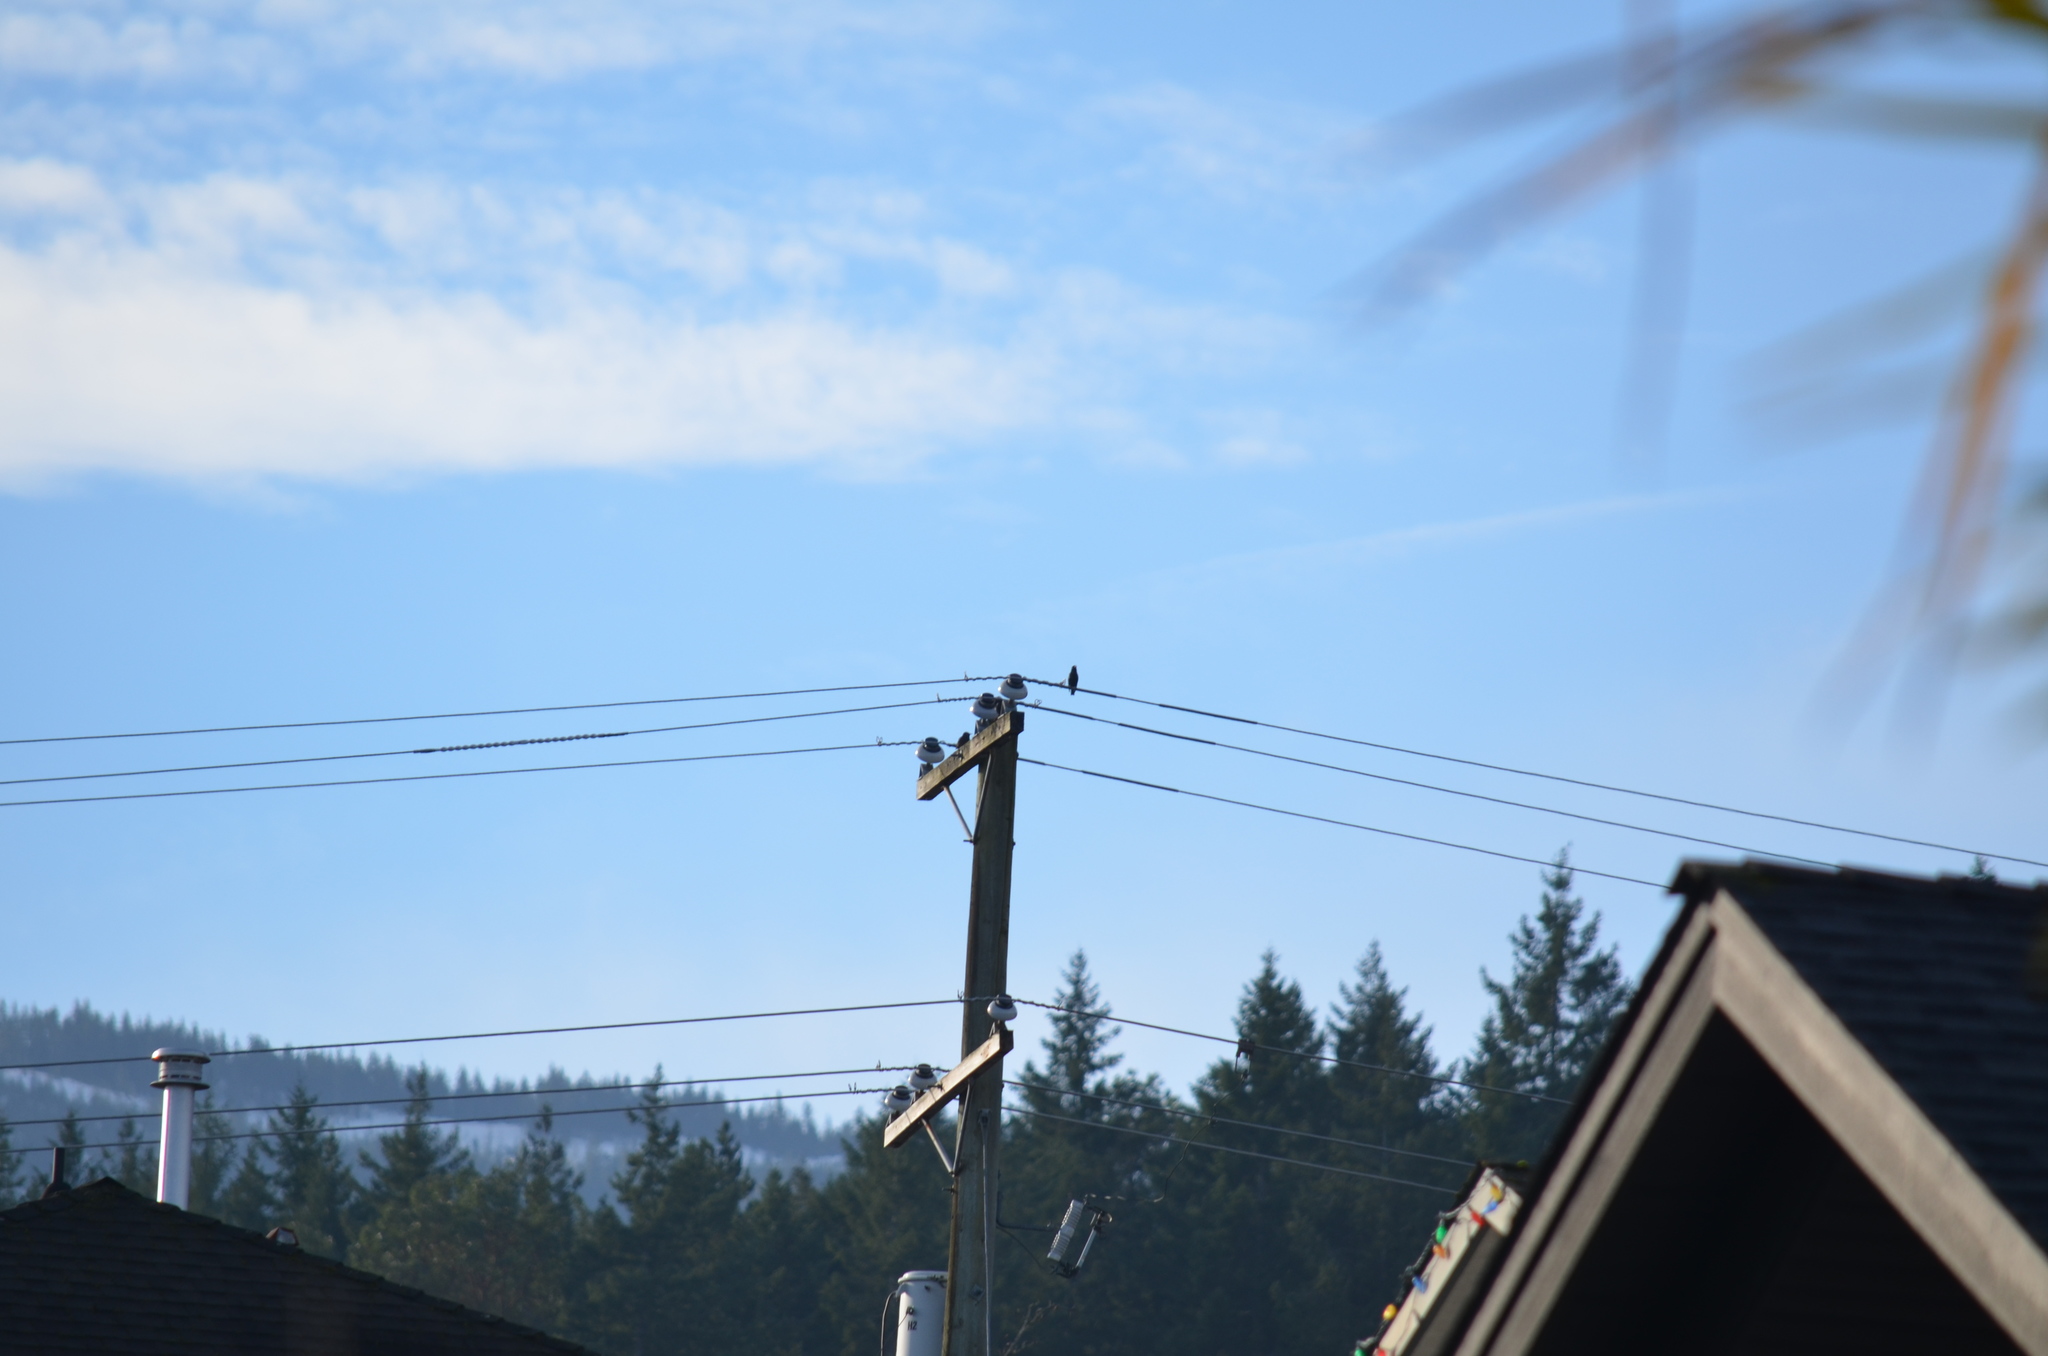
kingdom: Animalia
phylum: Chordata
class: Aves
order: Passeriformes
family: Sturnidae
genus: Sturnus
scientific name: Sturnus vulgaris
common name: Common starling
